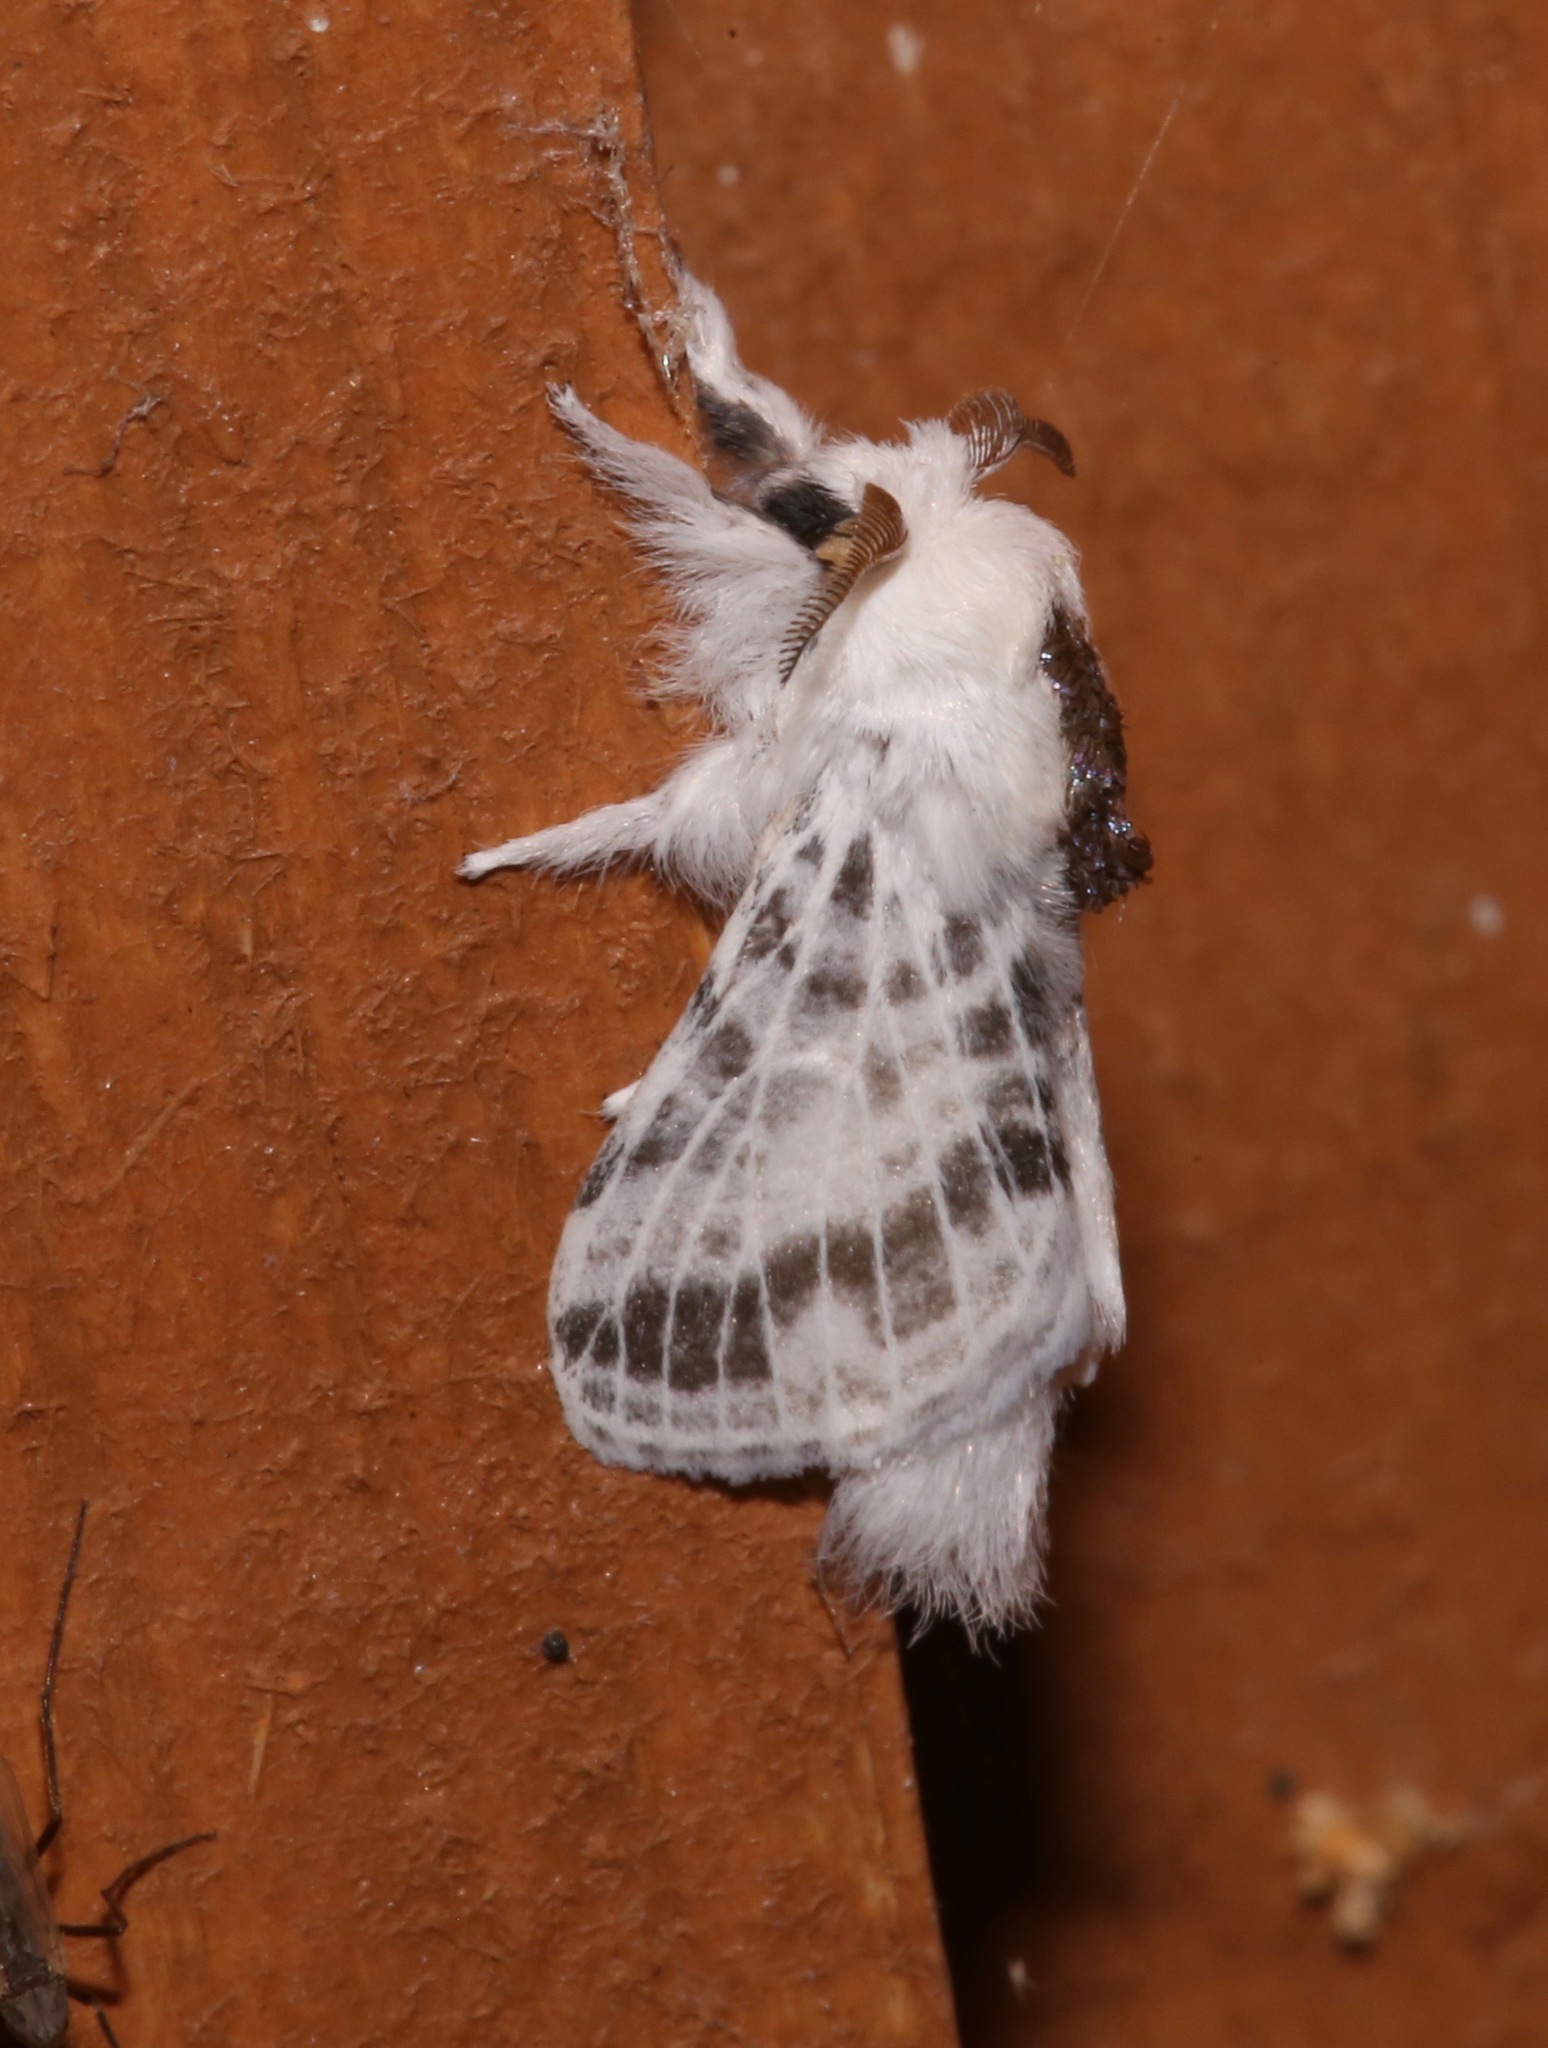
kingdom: Animalia
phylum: Arthropoda
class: Insecta
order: Lepidoptera
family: Lasiocampidae
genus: Tolype
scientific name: Tolype notialis
